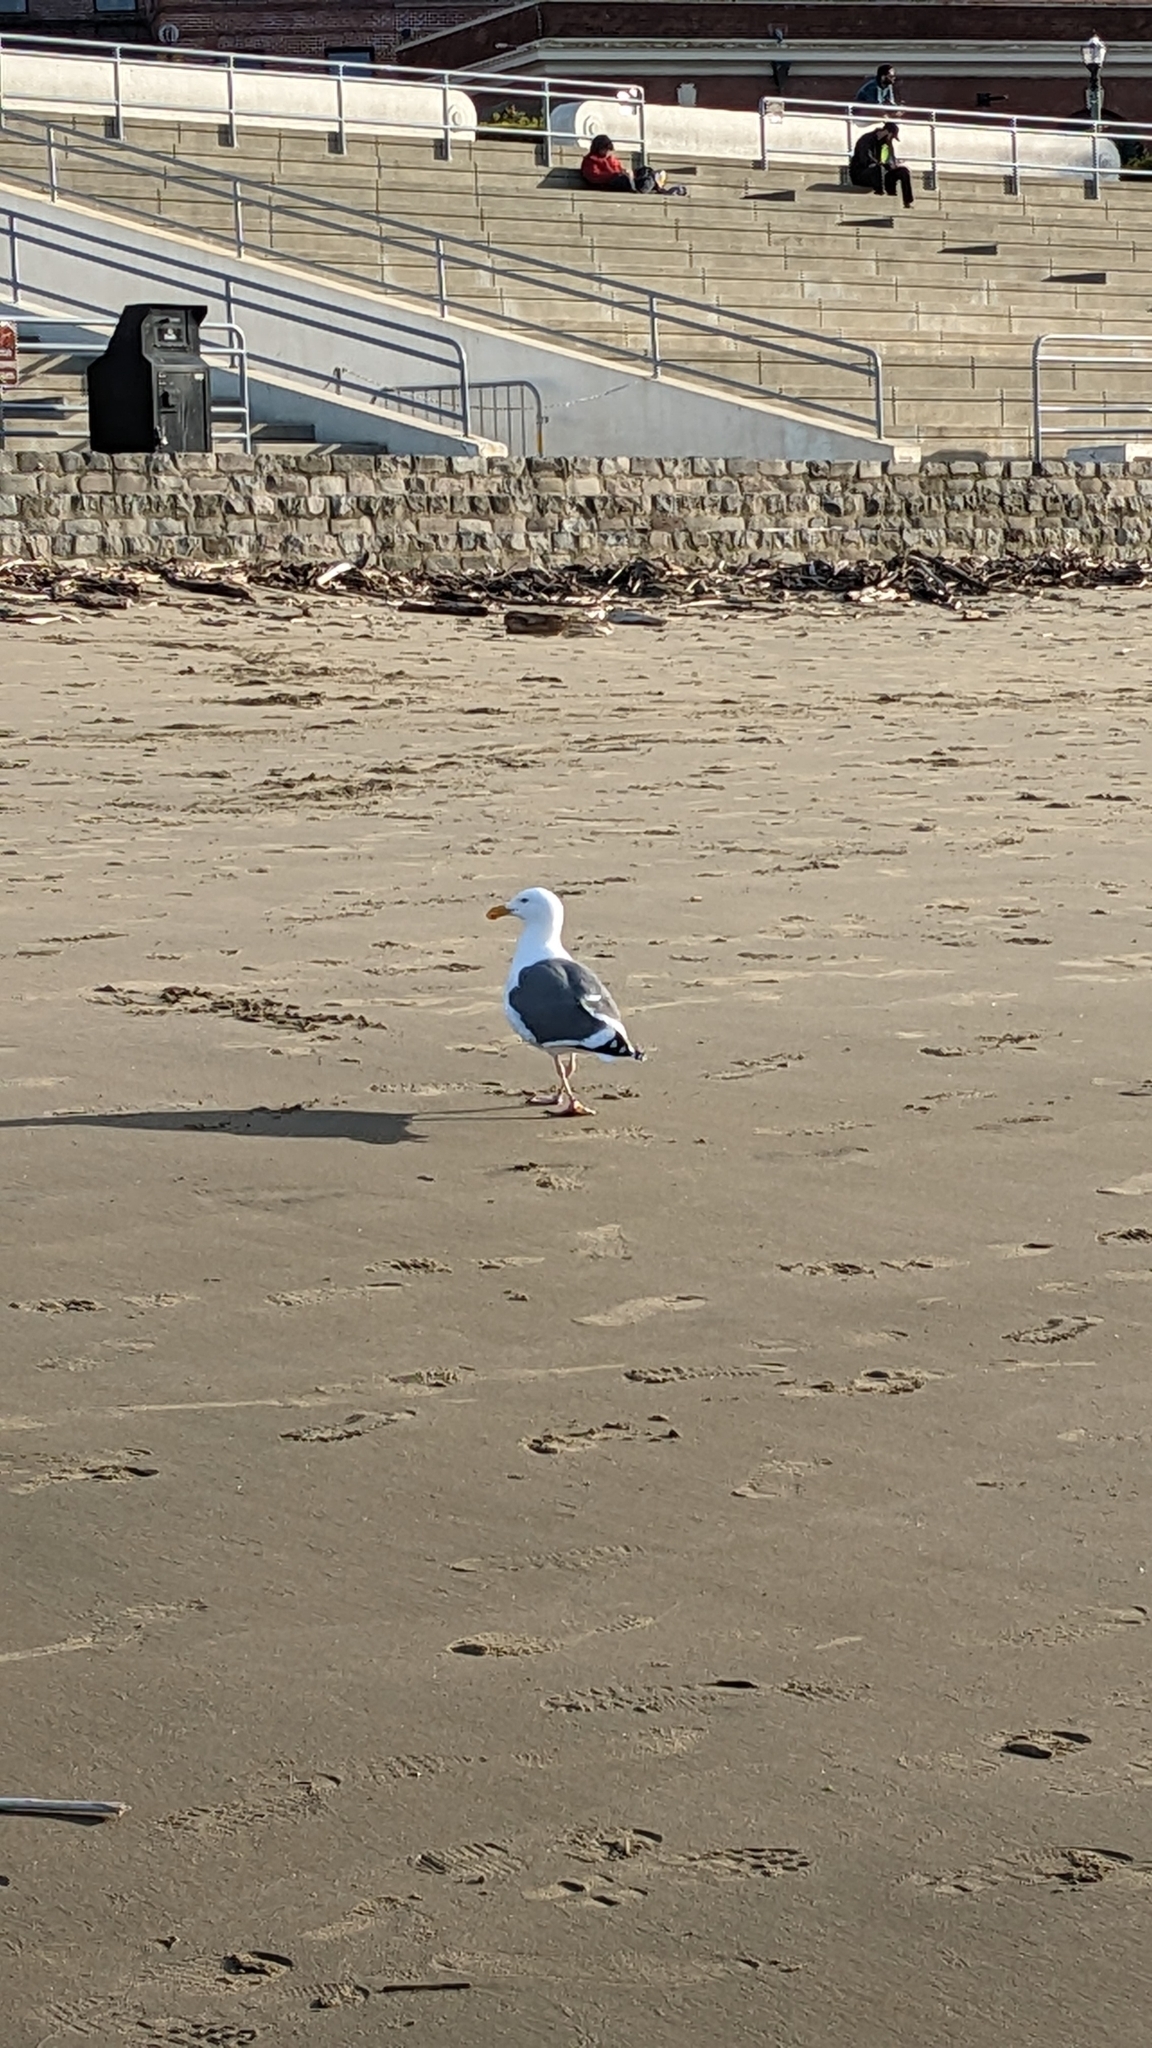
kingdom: Animalia
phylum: Chordata
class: Aves
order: Charadriiformes
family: Laridae
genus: Larus
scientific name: Larus occidentalis
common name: Western gull
